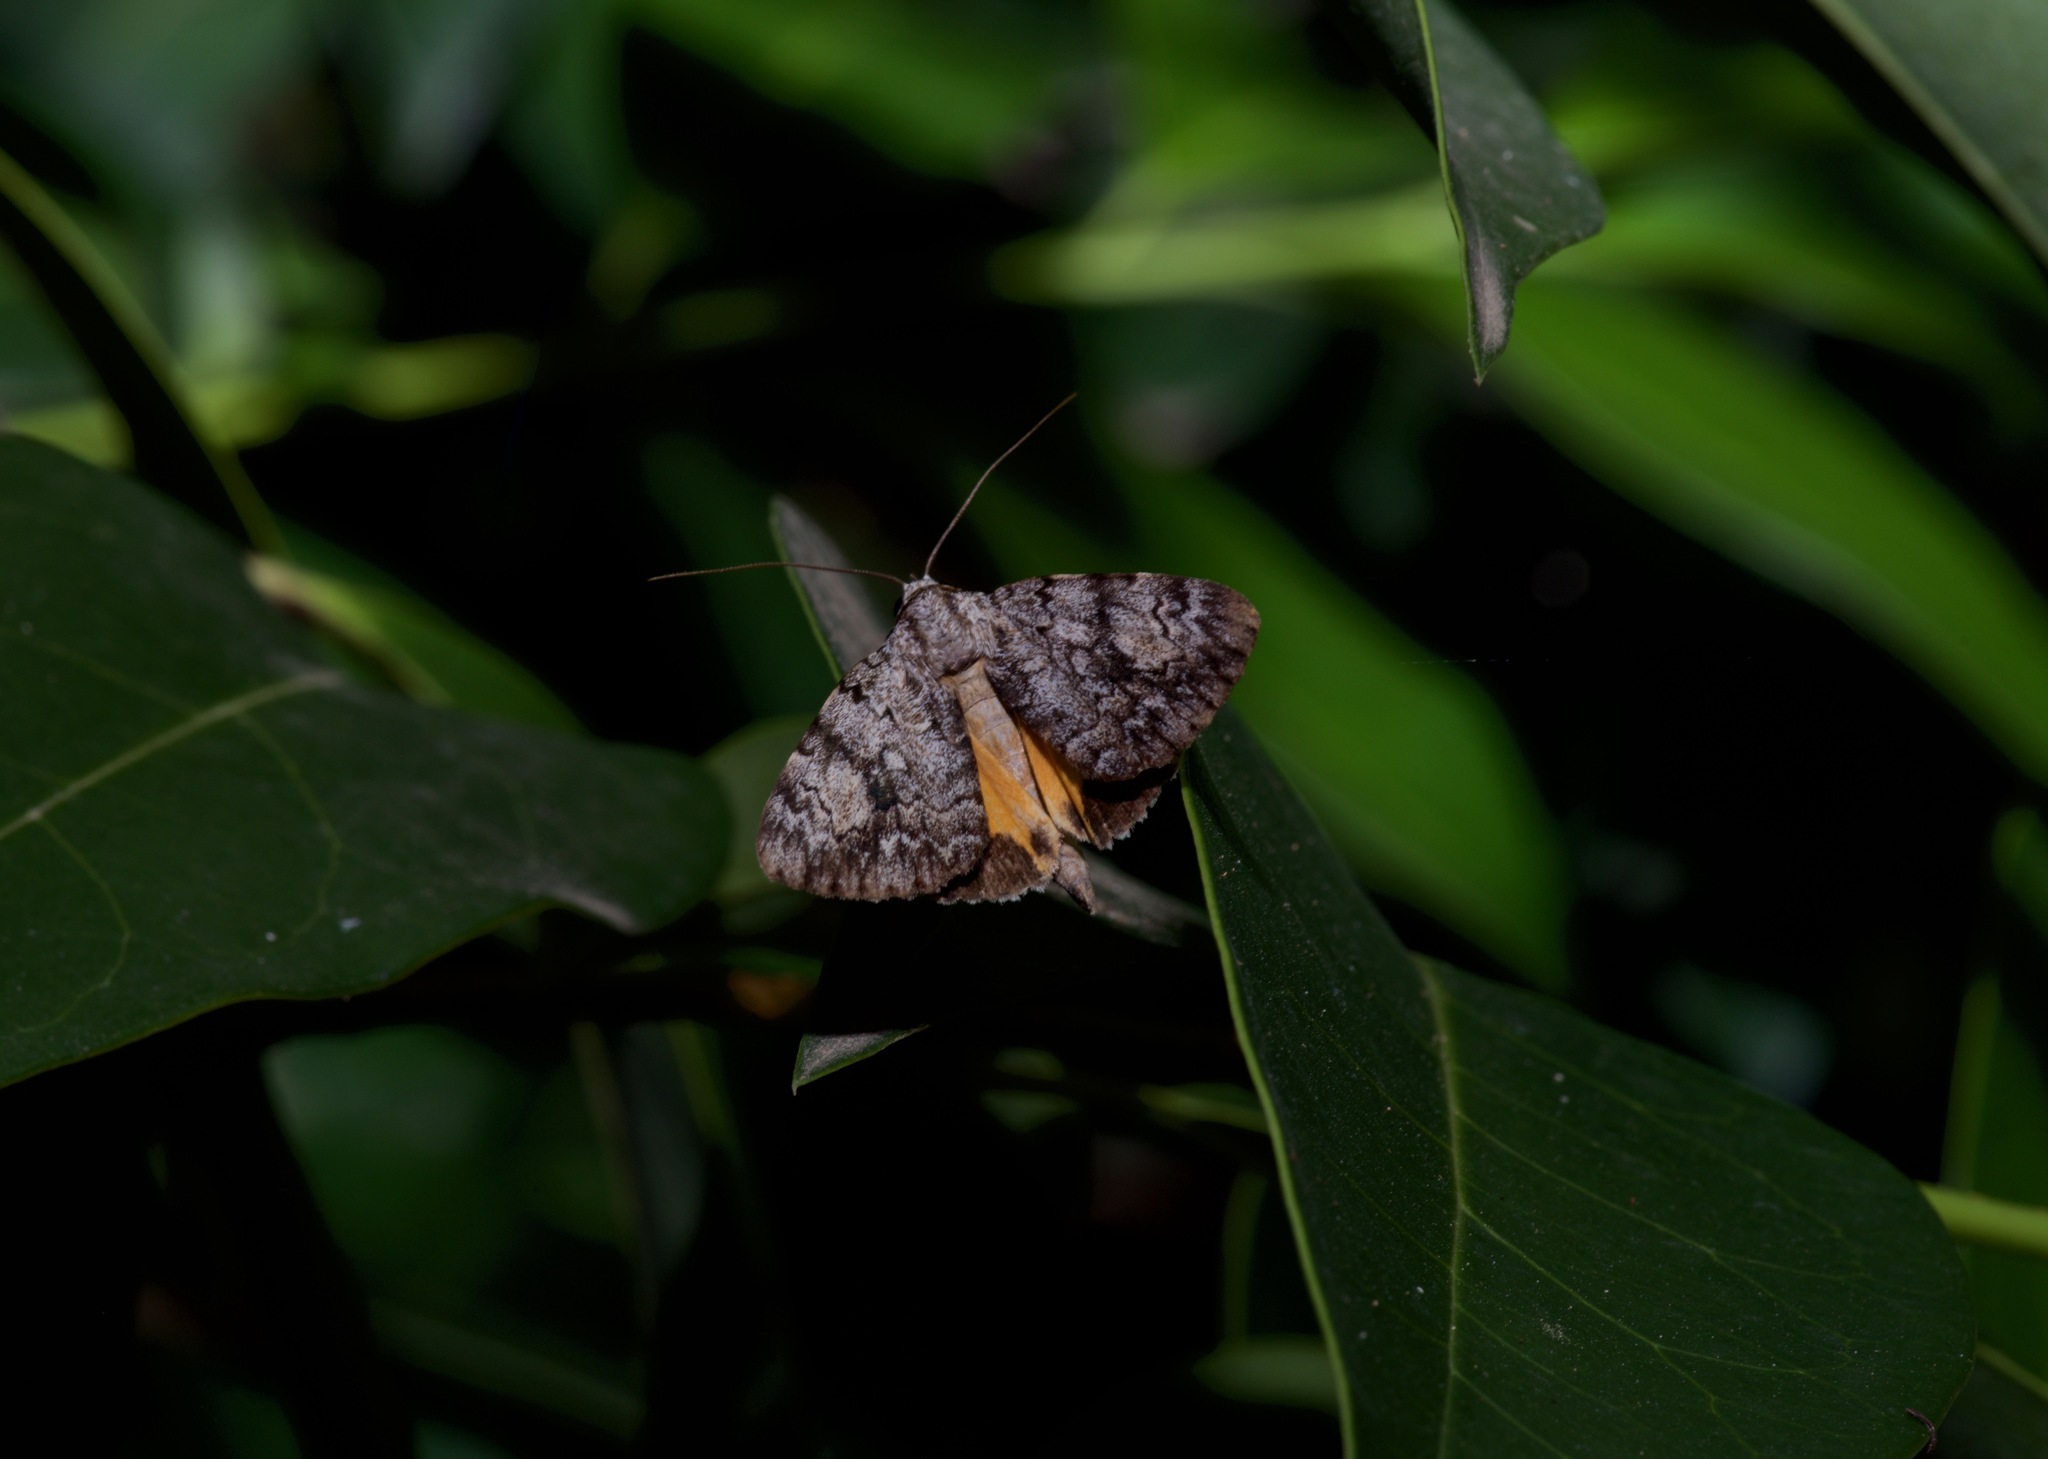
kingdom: Animalia
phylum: Arthropoda
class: Insecta
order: Lepidoptera
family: Erebidae
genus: Catocala
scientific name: Catocala lineella
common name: Little lined underwing
